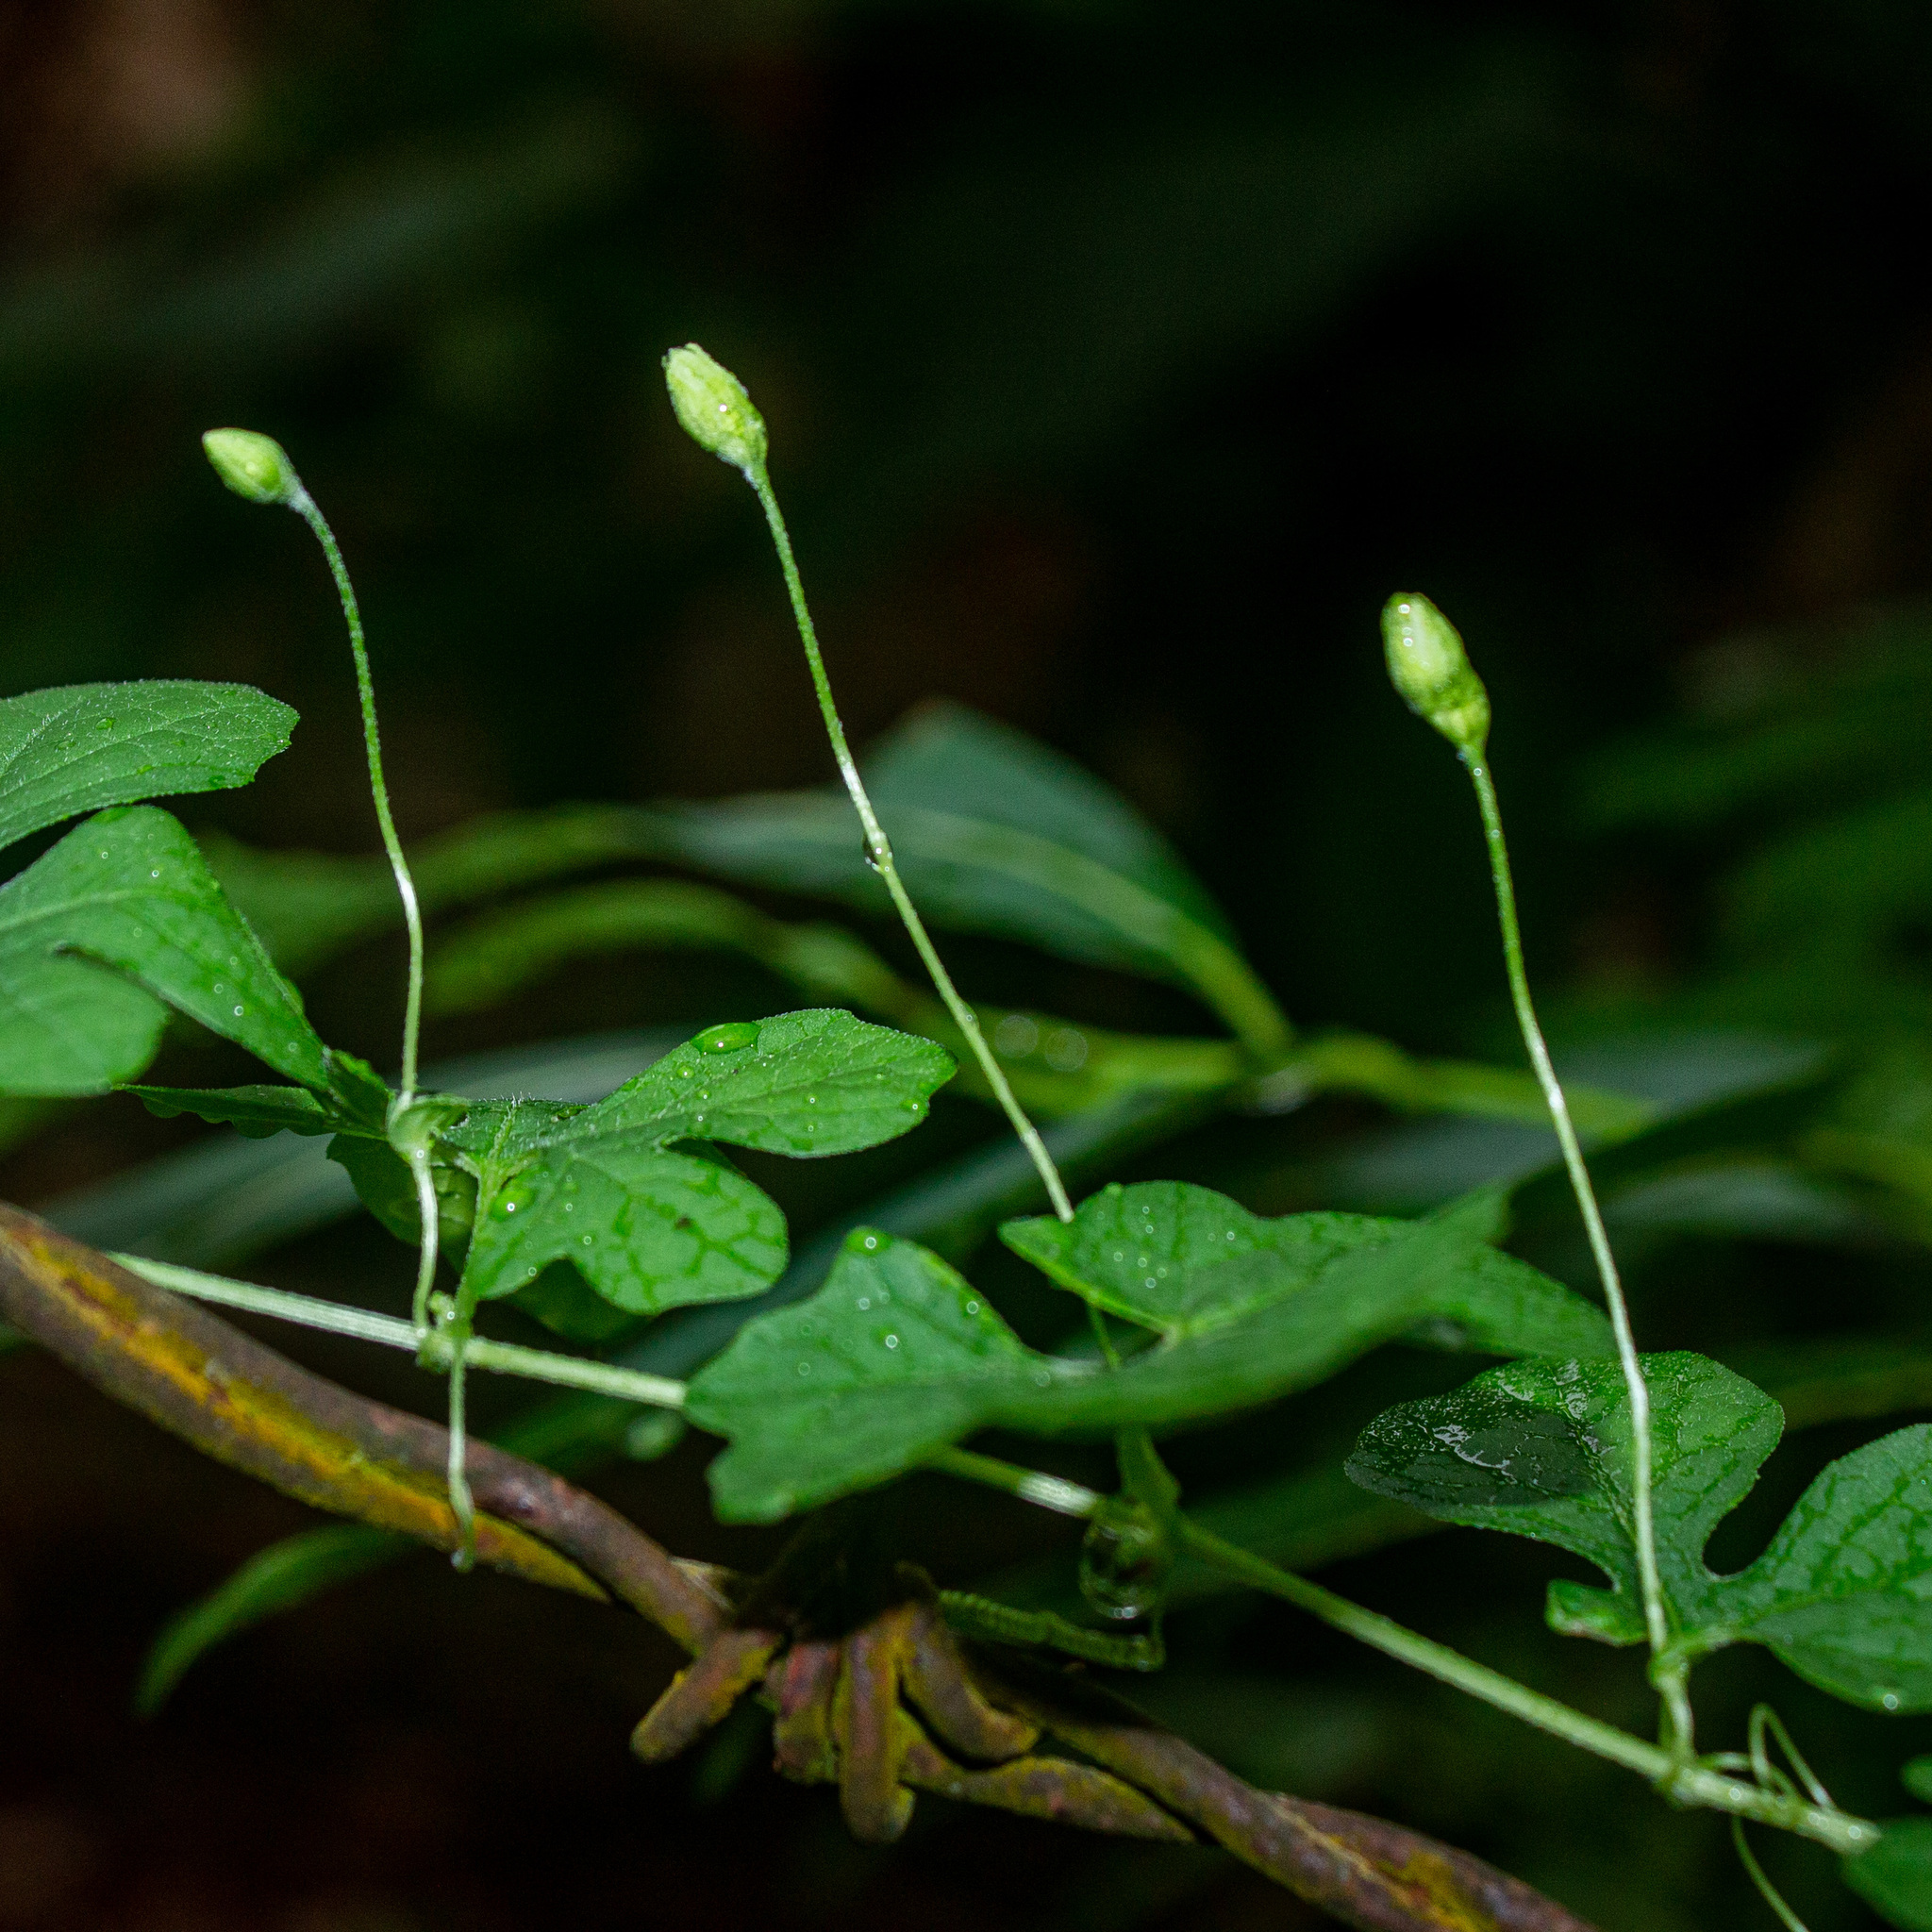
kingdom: Plantae
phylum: Tracheophyta
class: Magnoliopsida
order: Cucurbitales
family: Cucurbitaceae
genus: Momordica
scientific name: Momordica charantia
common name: Balsampear
